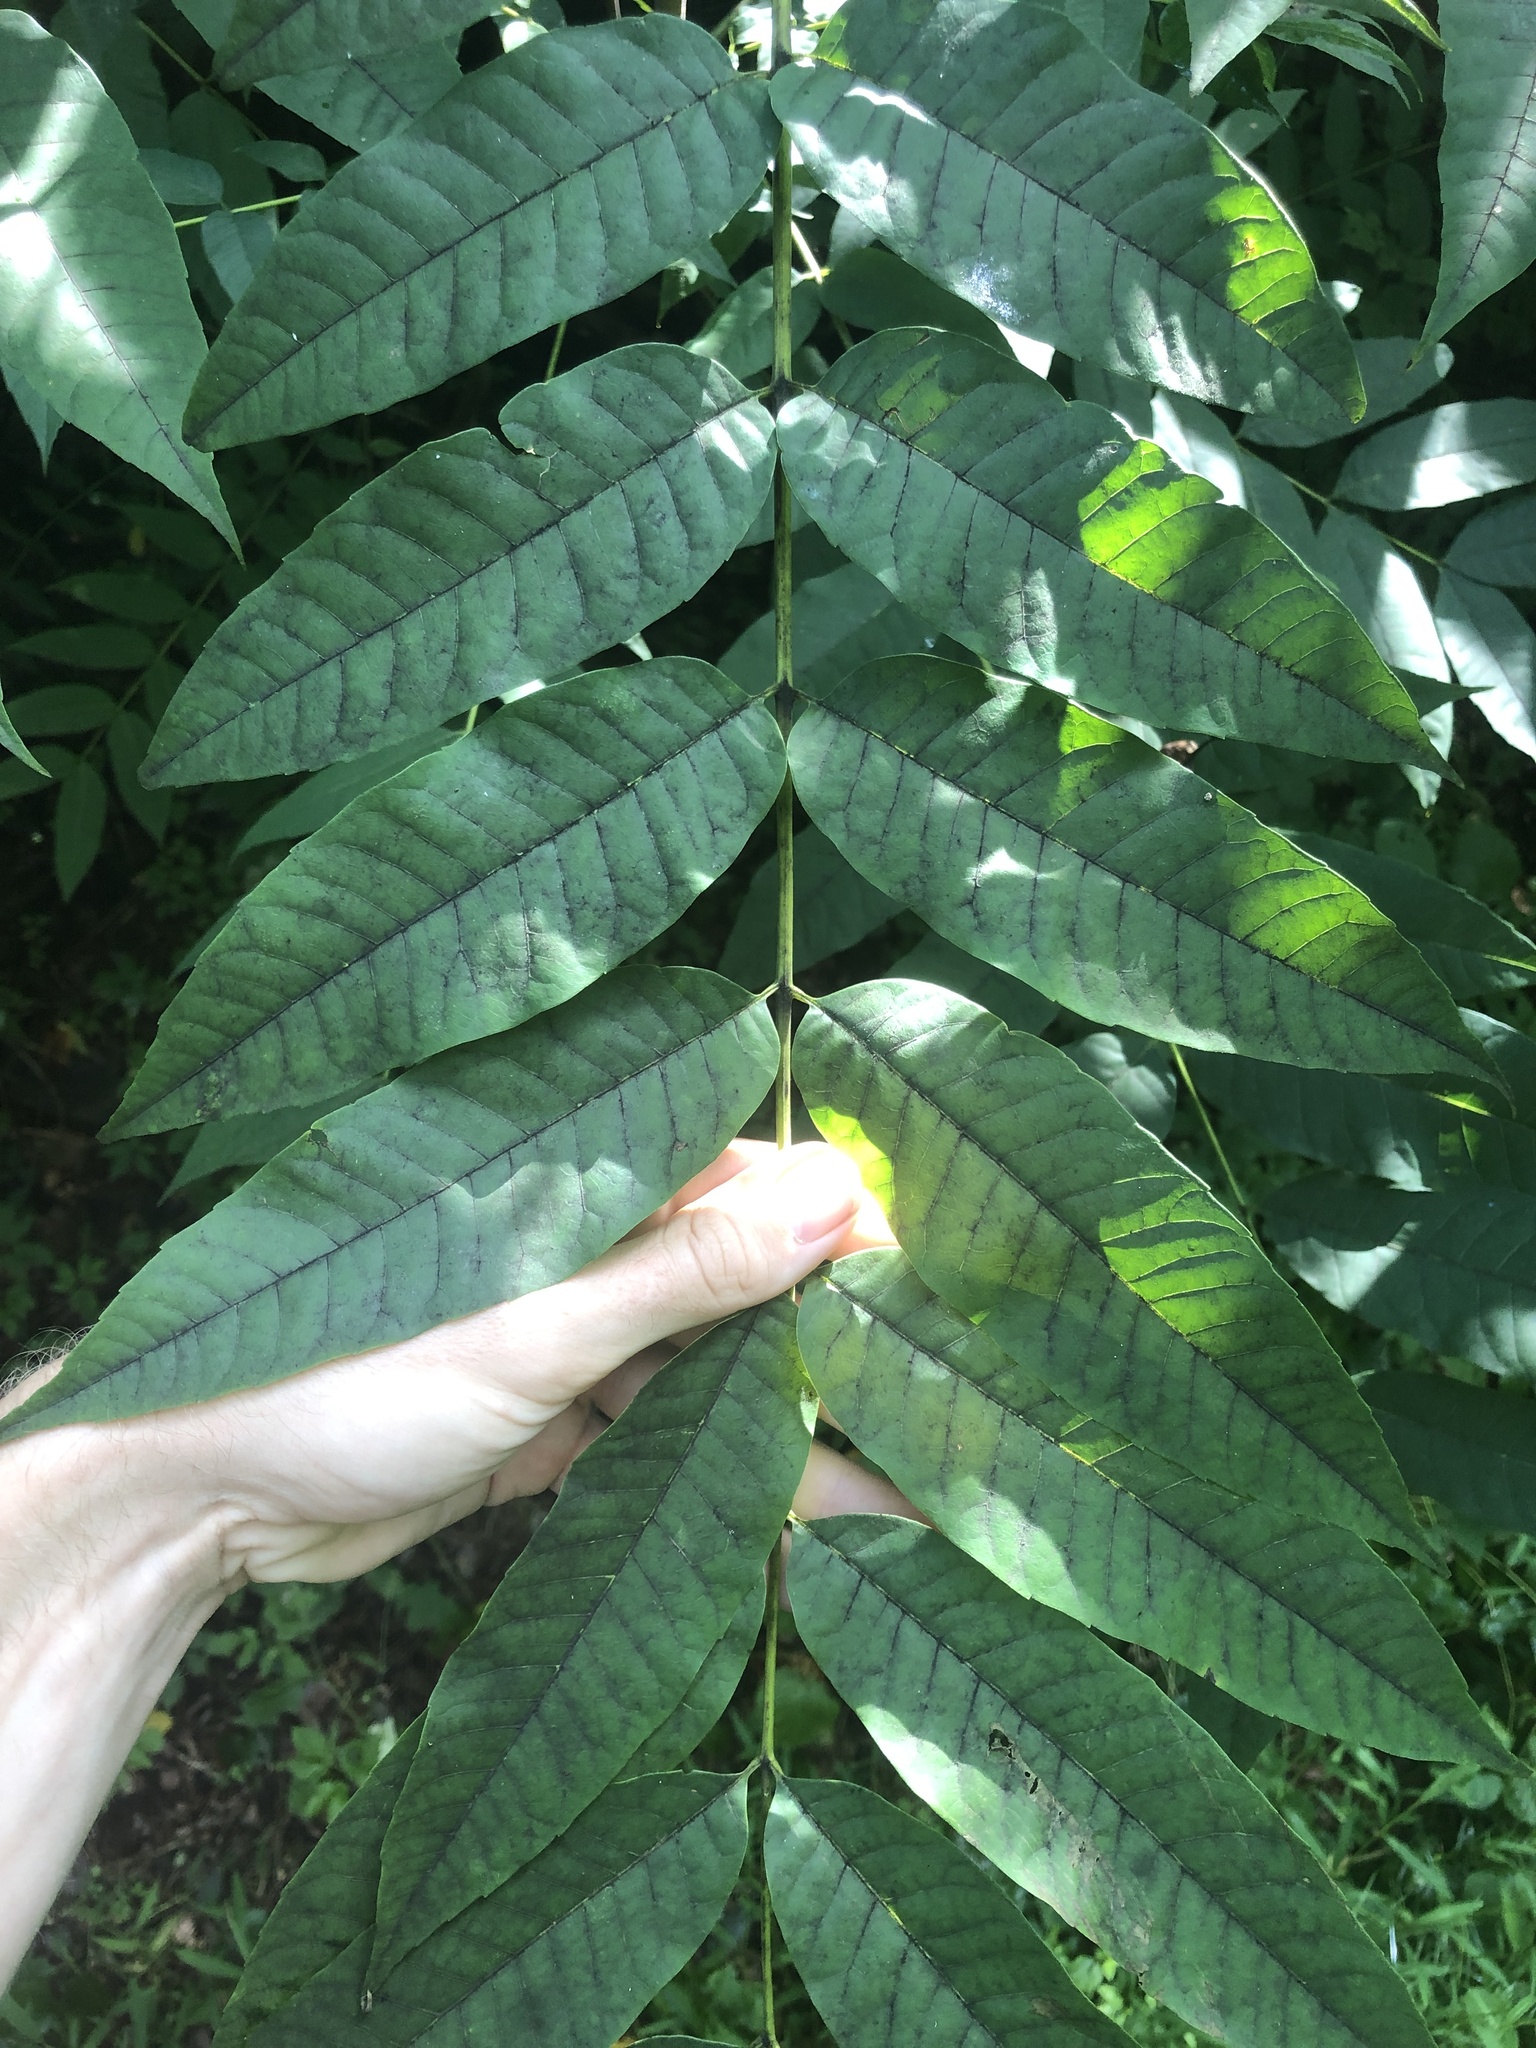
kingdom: Plantae
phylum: Tracheophyta
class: Magnoliopsida
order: Sapindales
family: Meliaceae
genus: Toona
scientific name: Toona sinensis
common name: Red toon
